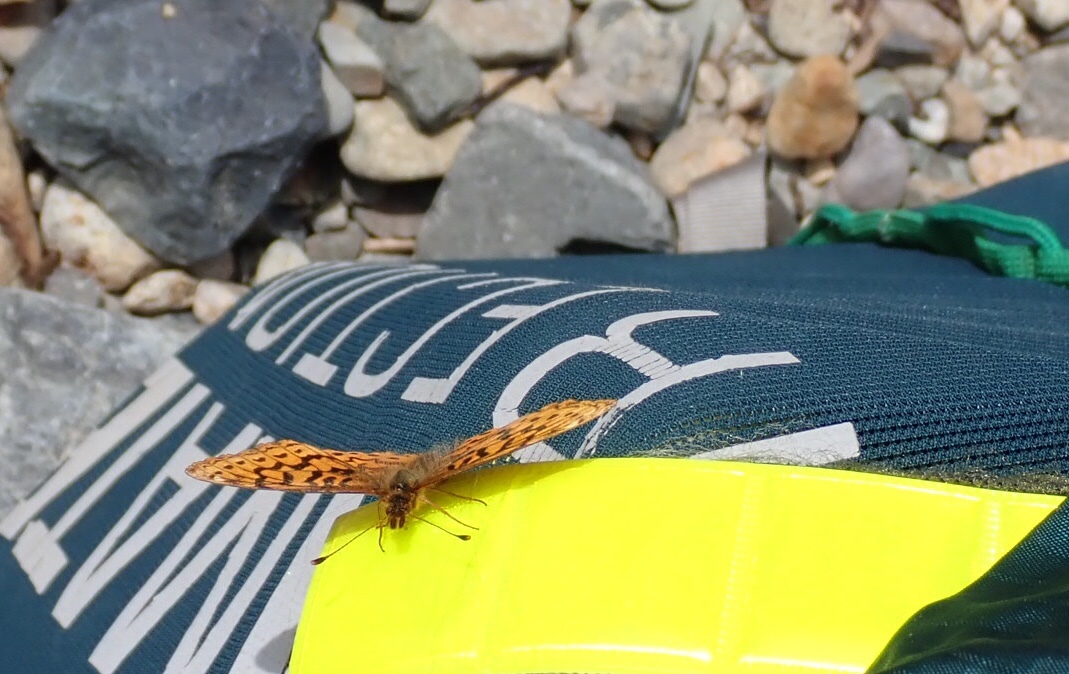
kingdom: Animalia
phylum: Arthropoda
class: Insecta
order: Lepidoptera
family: Nymphalidae
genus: Boloria
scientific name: Boloria epithore
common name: Pacific fritillary
